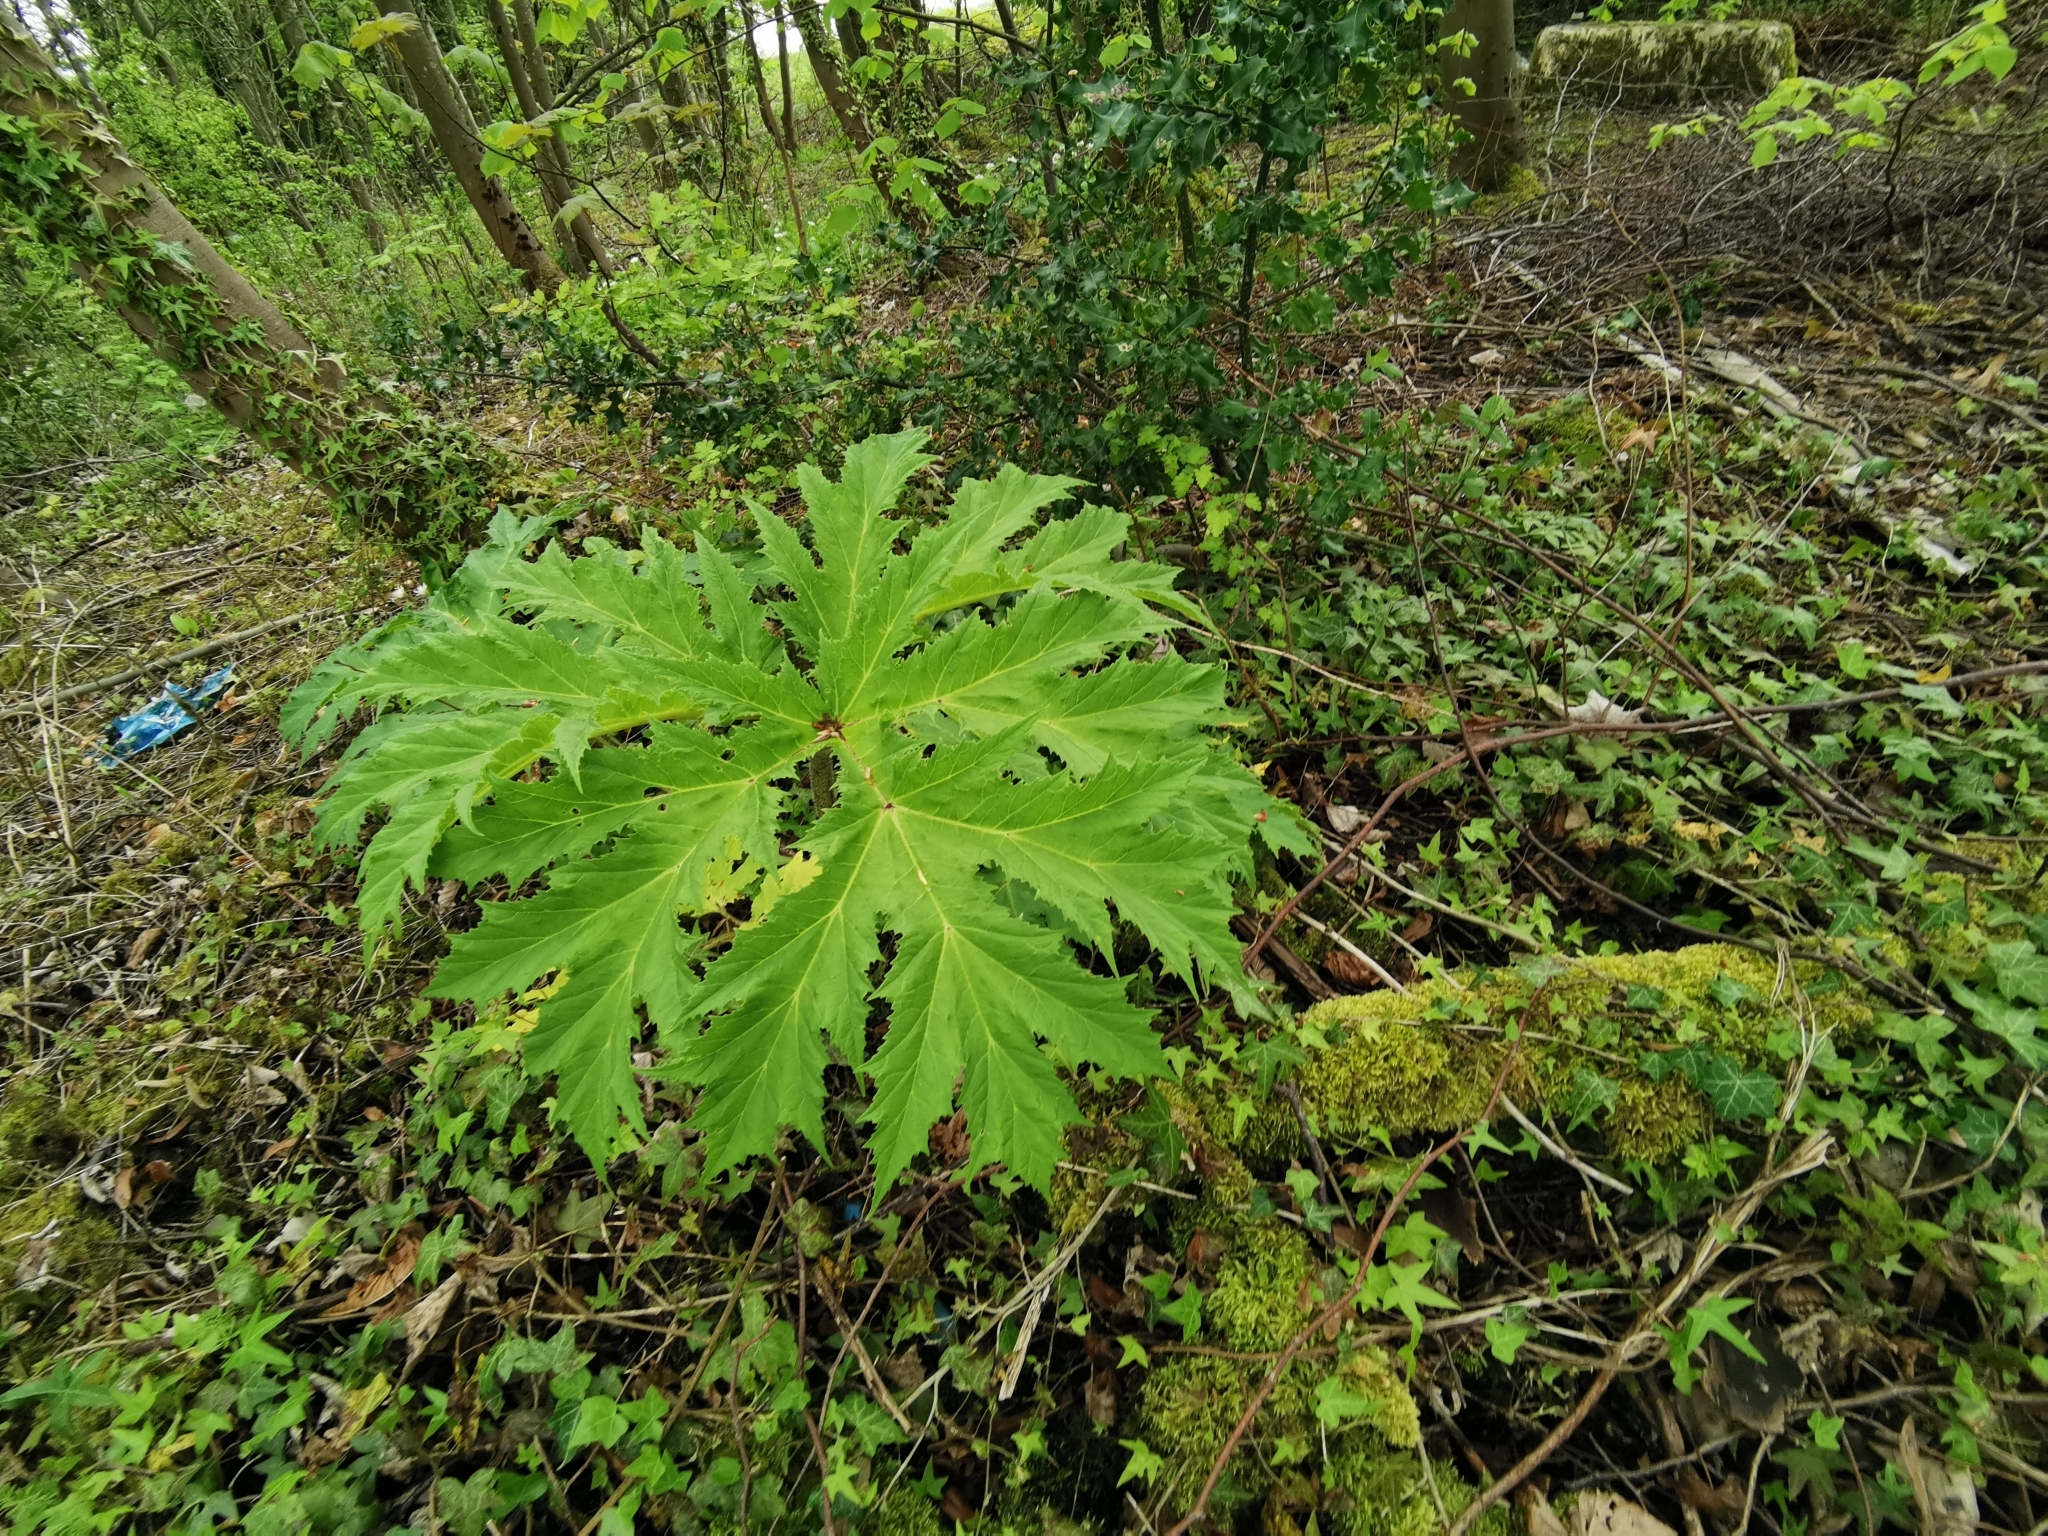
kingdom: Plantae
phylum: Tracheophyta
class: Magnoliopsida
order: Apiales
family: Apiaceae
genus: Heracleum
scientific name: Heracleum mantegazzianum
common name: Giant hogweed
